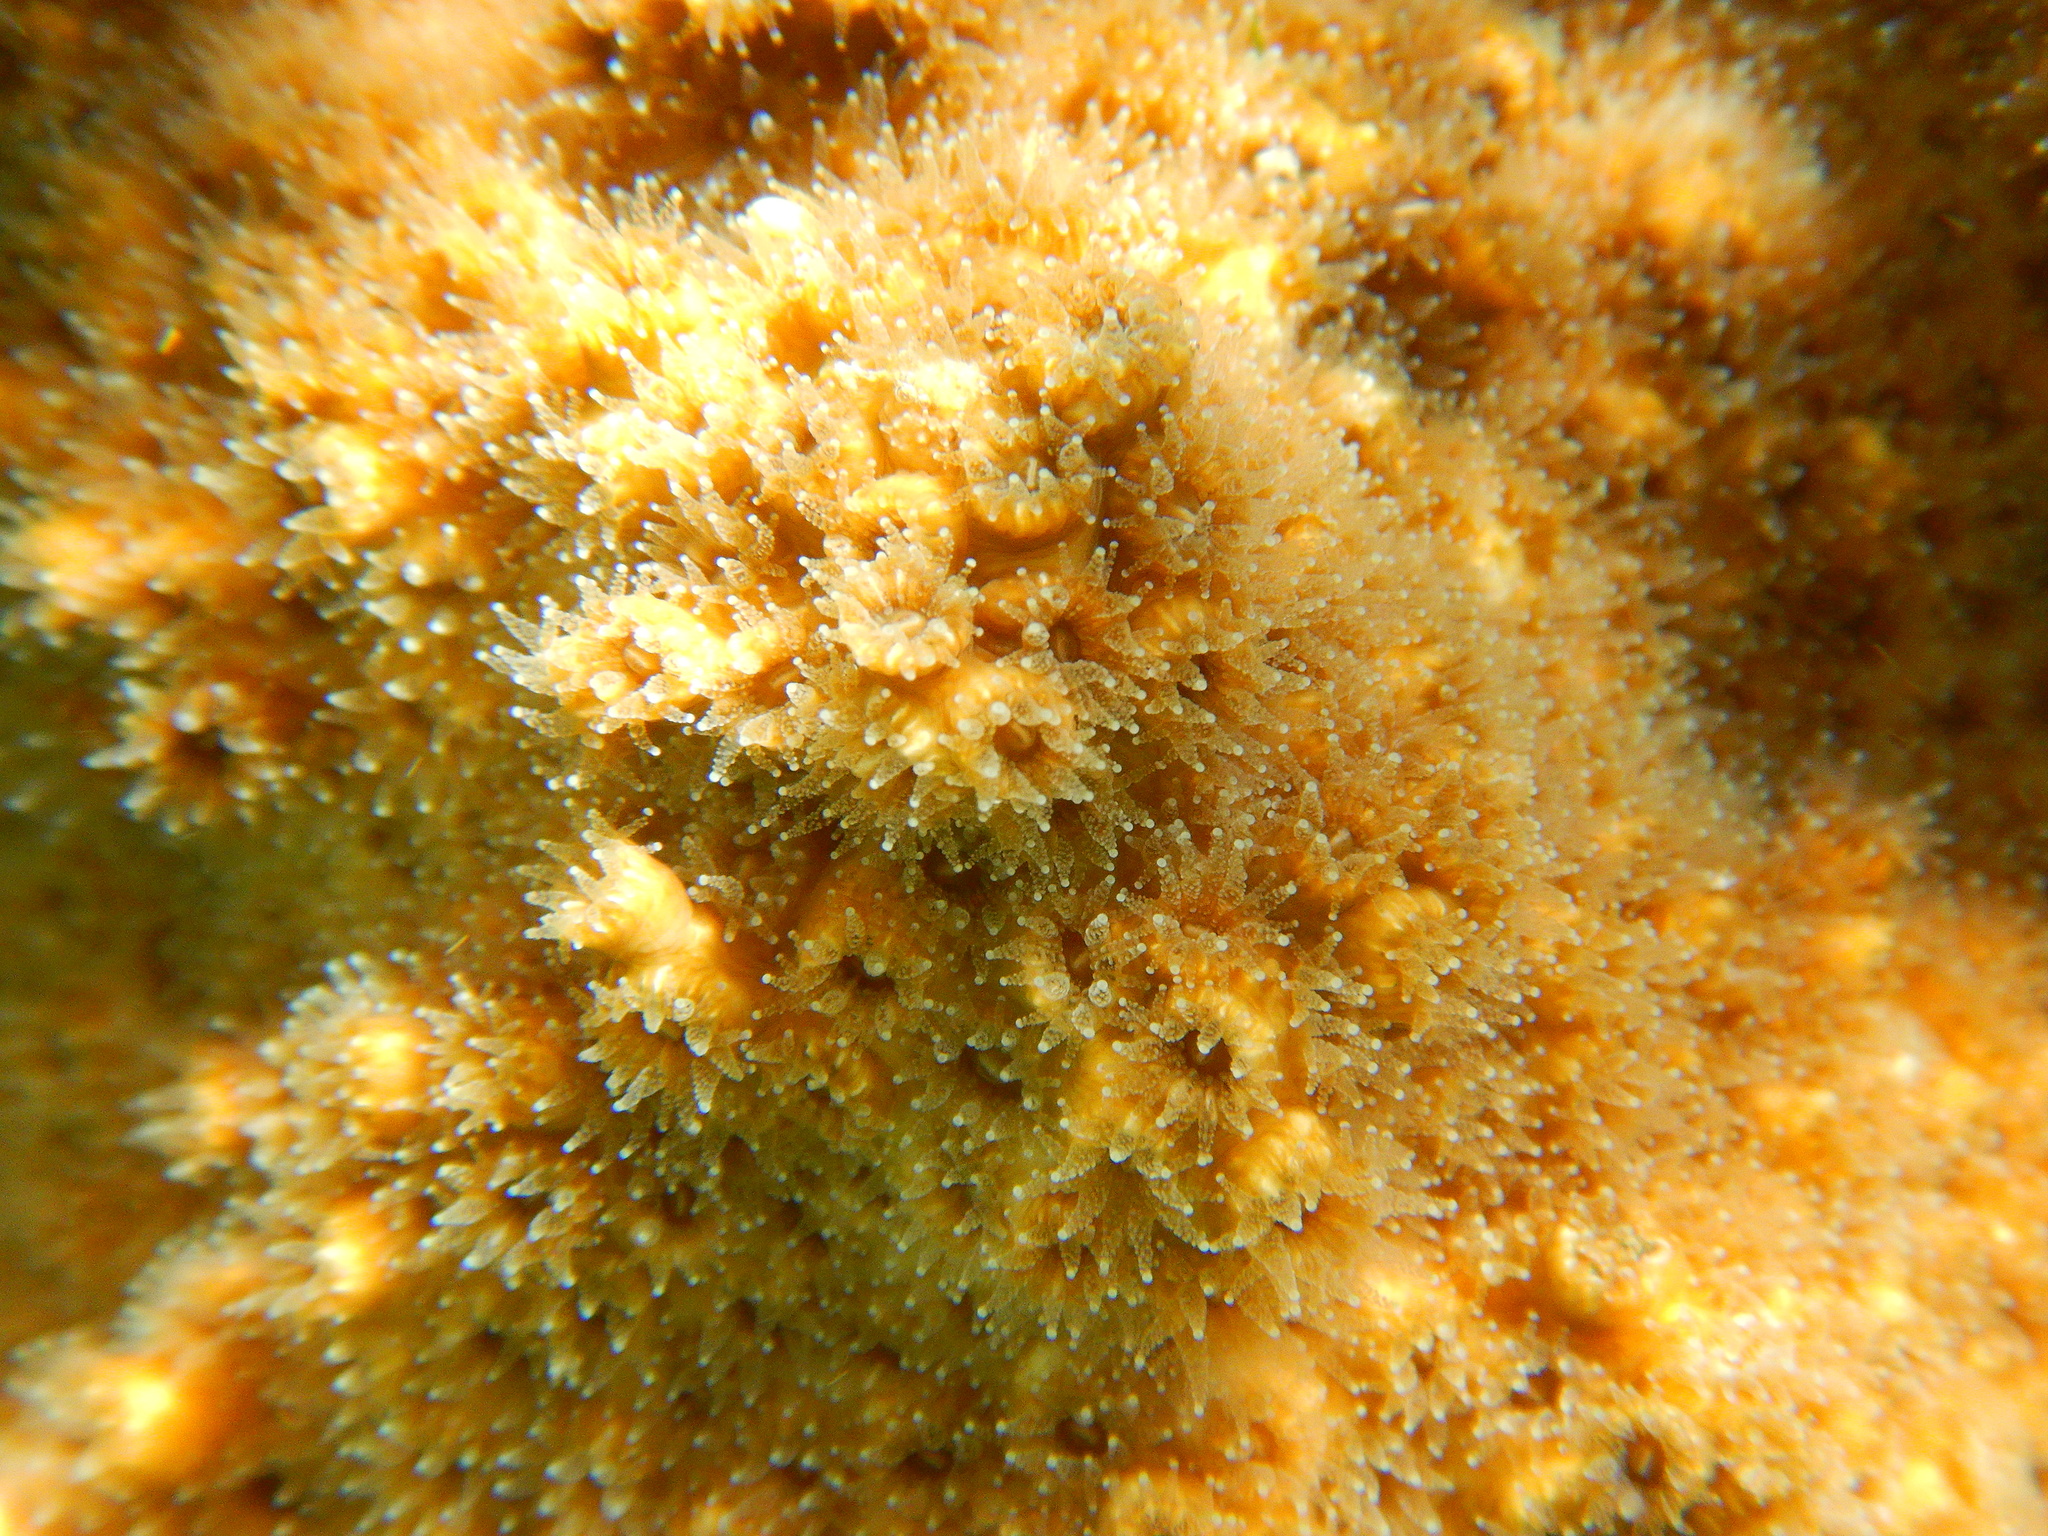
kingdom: Animalia
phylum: Cnidaria
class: Anthozoa
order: Scleractinia
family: Oculinidae
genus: Oculina
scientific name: Oculina patagonica
